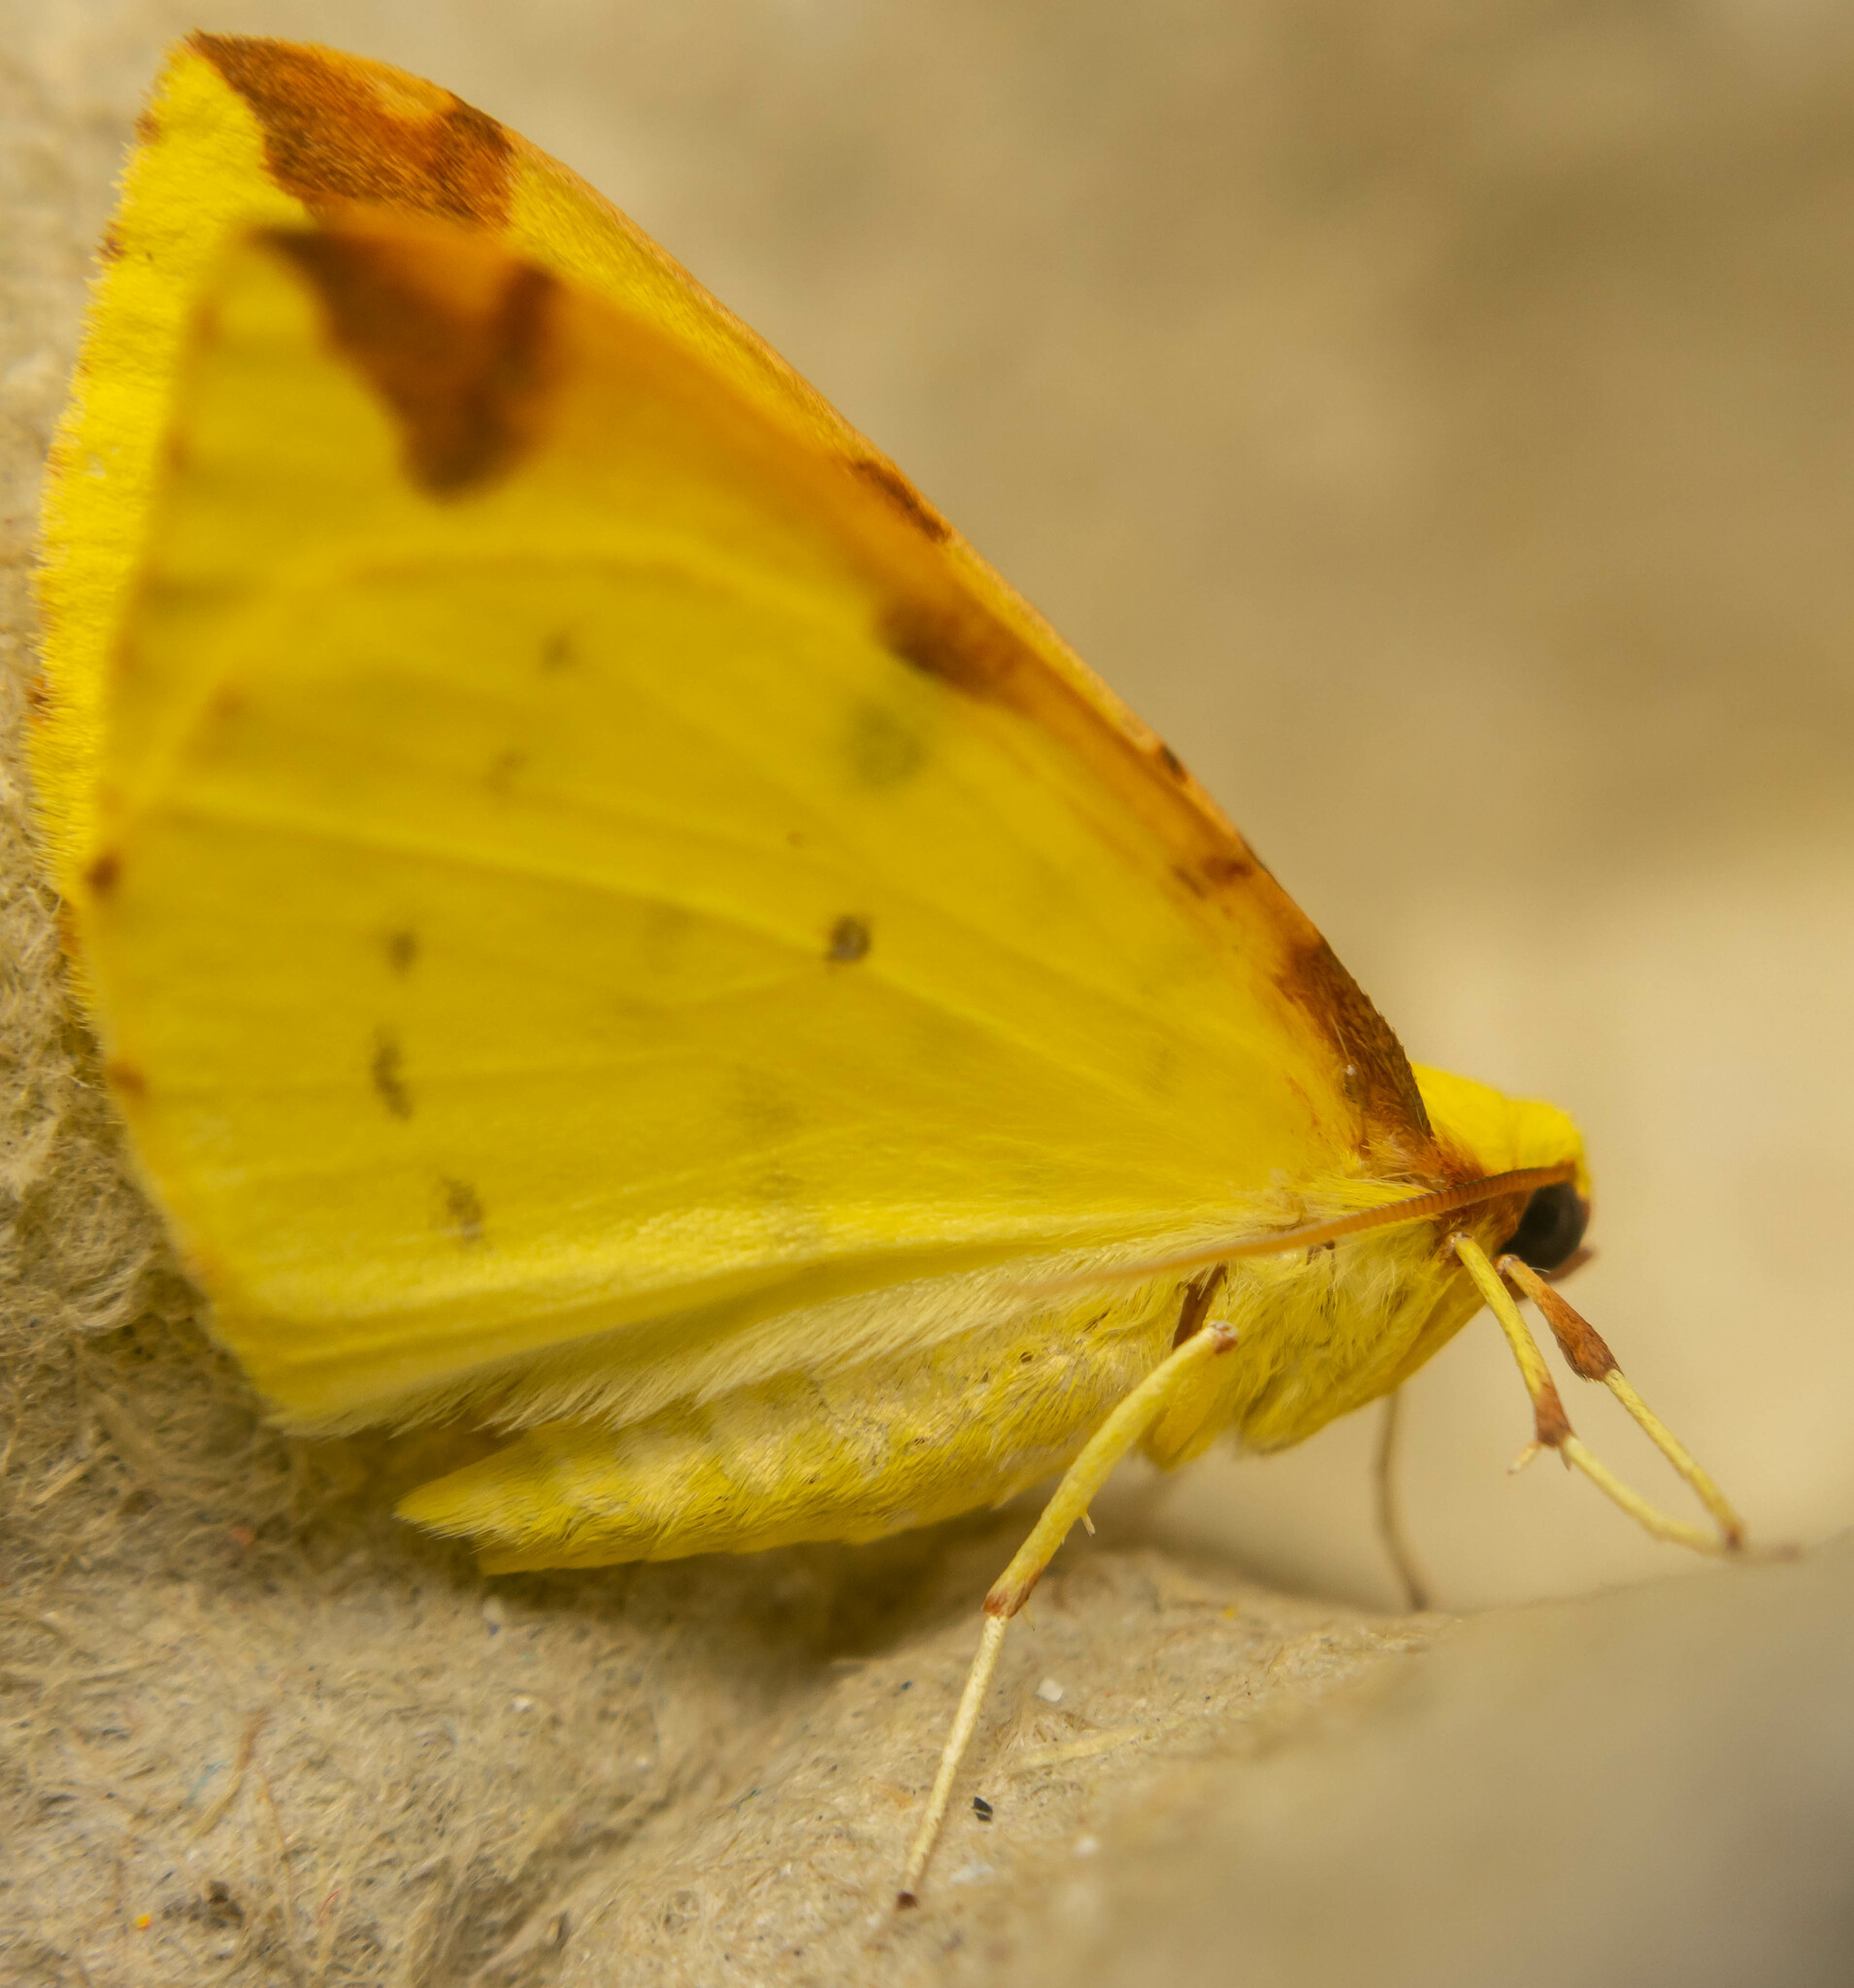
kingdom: Animalia
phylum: Arthropoda
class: Insecta
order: Lepidoptera
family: Geometridae
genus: Opisthograptis
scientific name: Opisthograptis luteolata
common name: Brimstone moth
